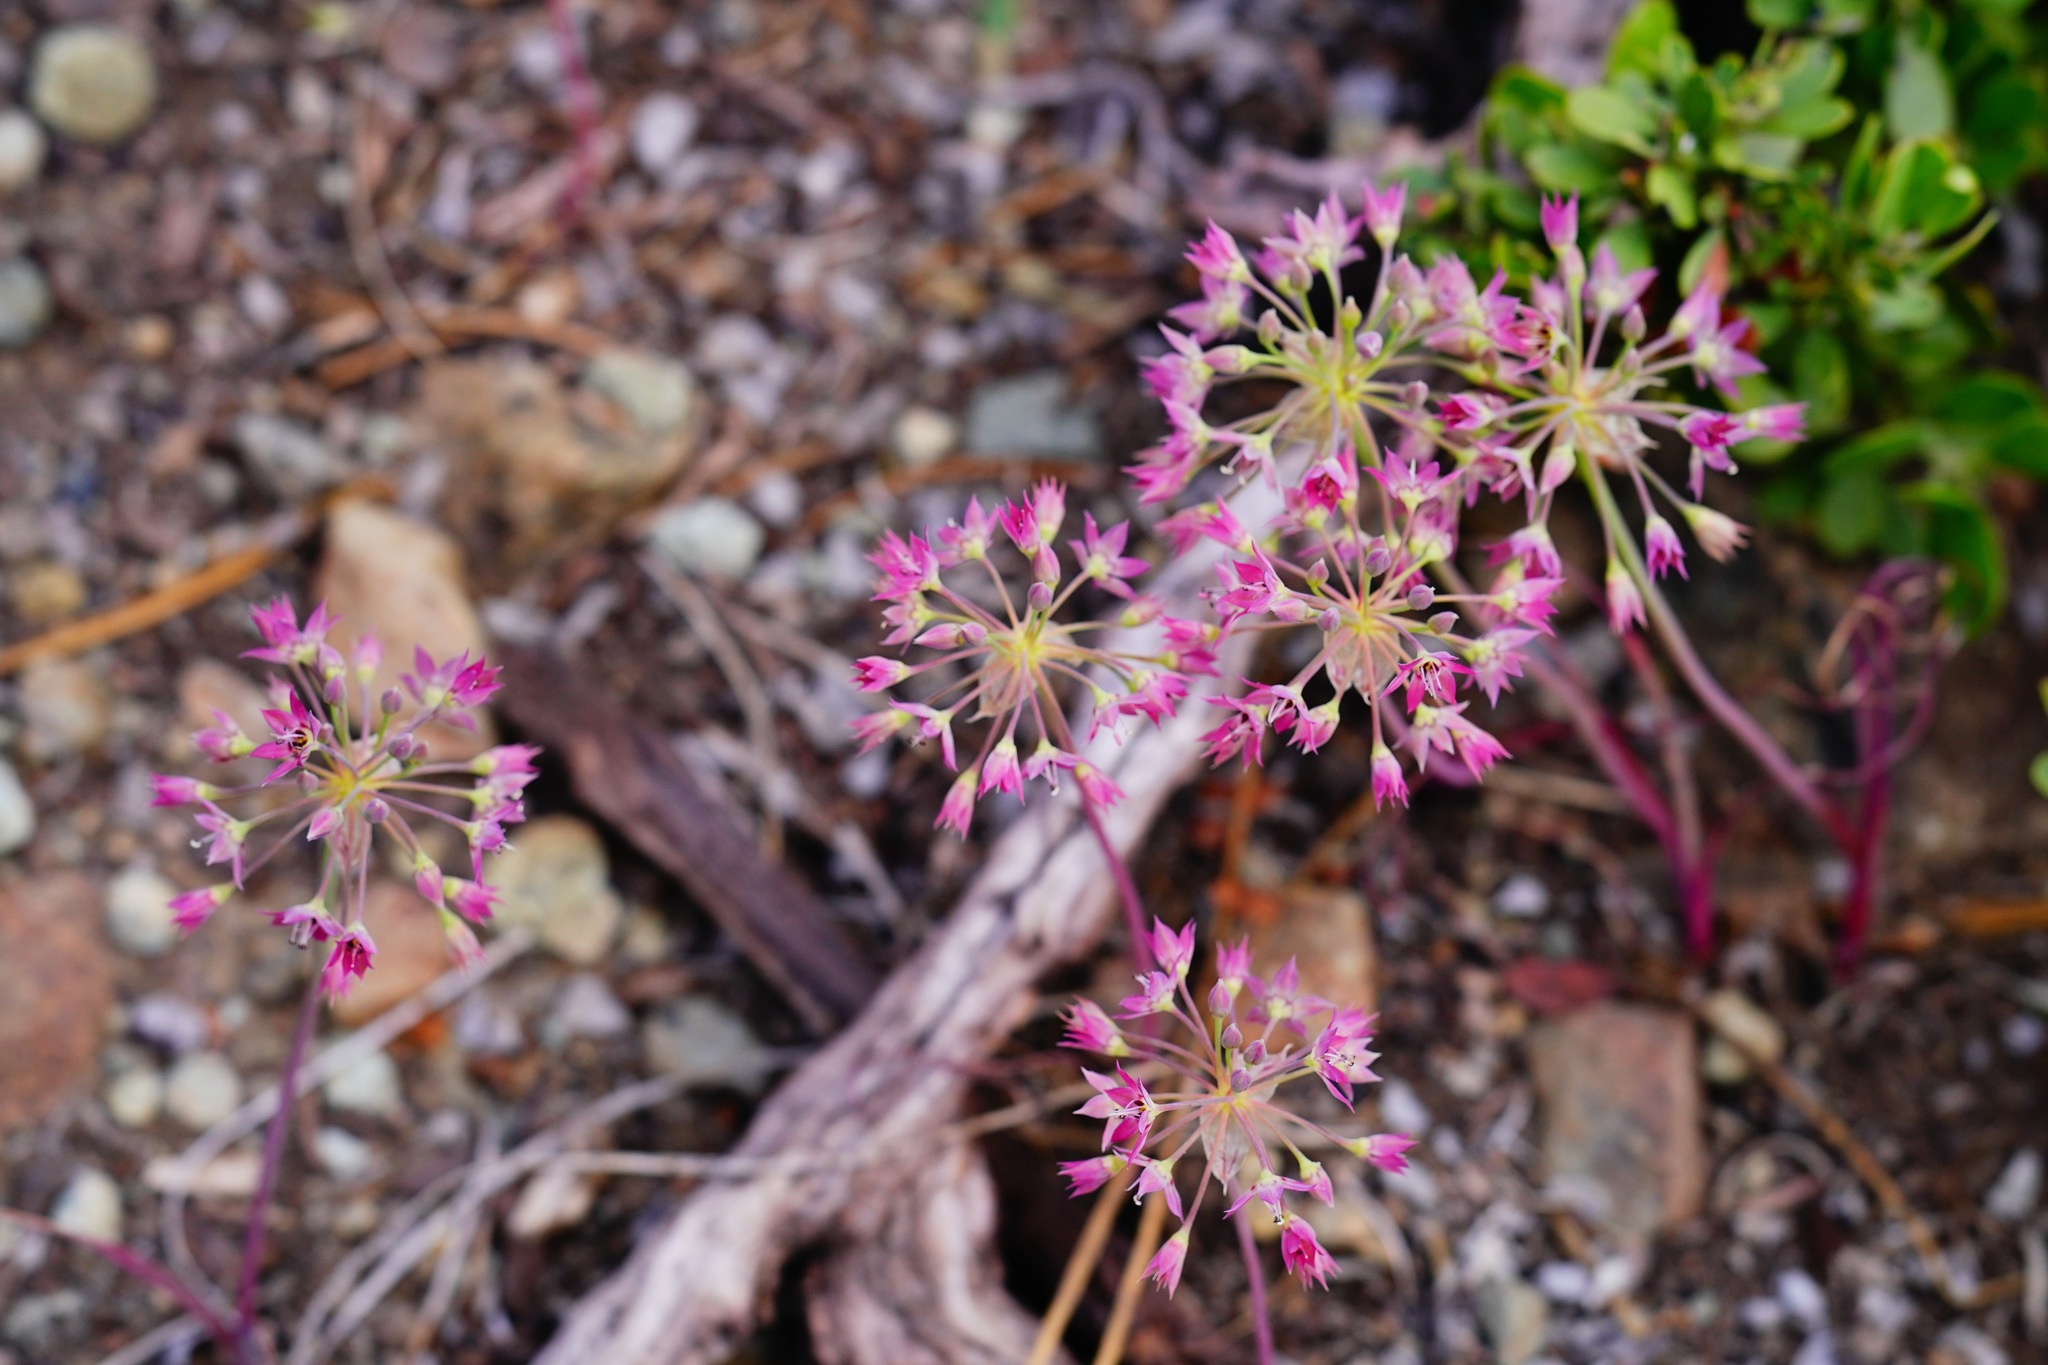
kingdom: Plantae
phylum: Tracheophyta
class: Liliopsida
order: Asparagales
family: Amaryllidaceae
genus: Allium
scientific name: Allium campanulatum
